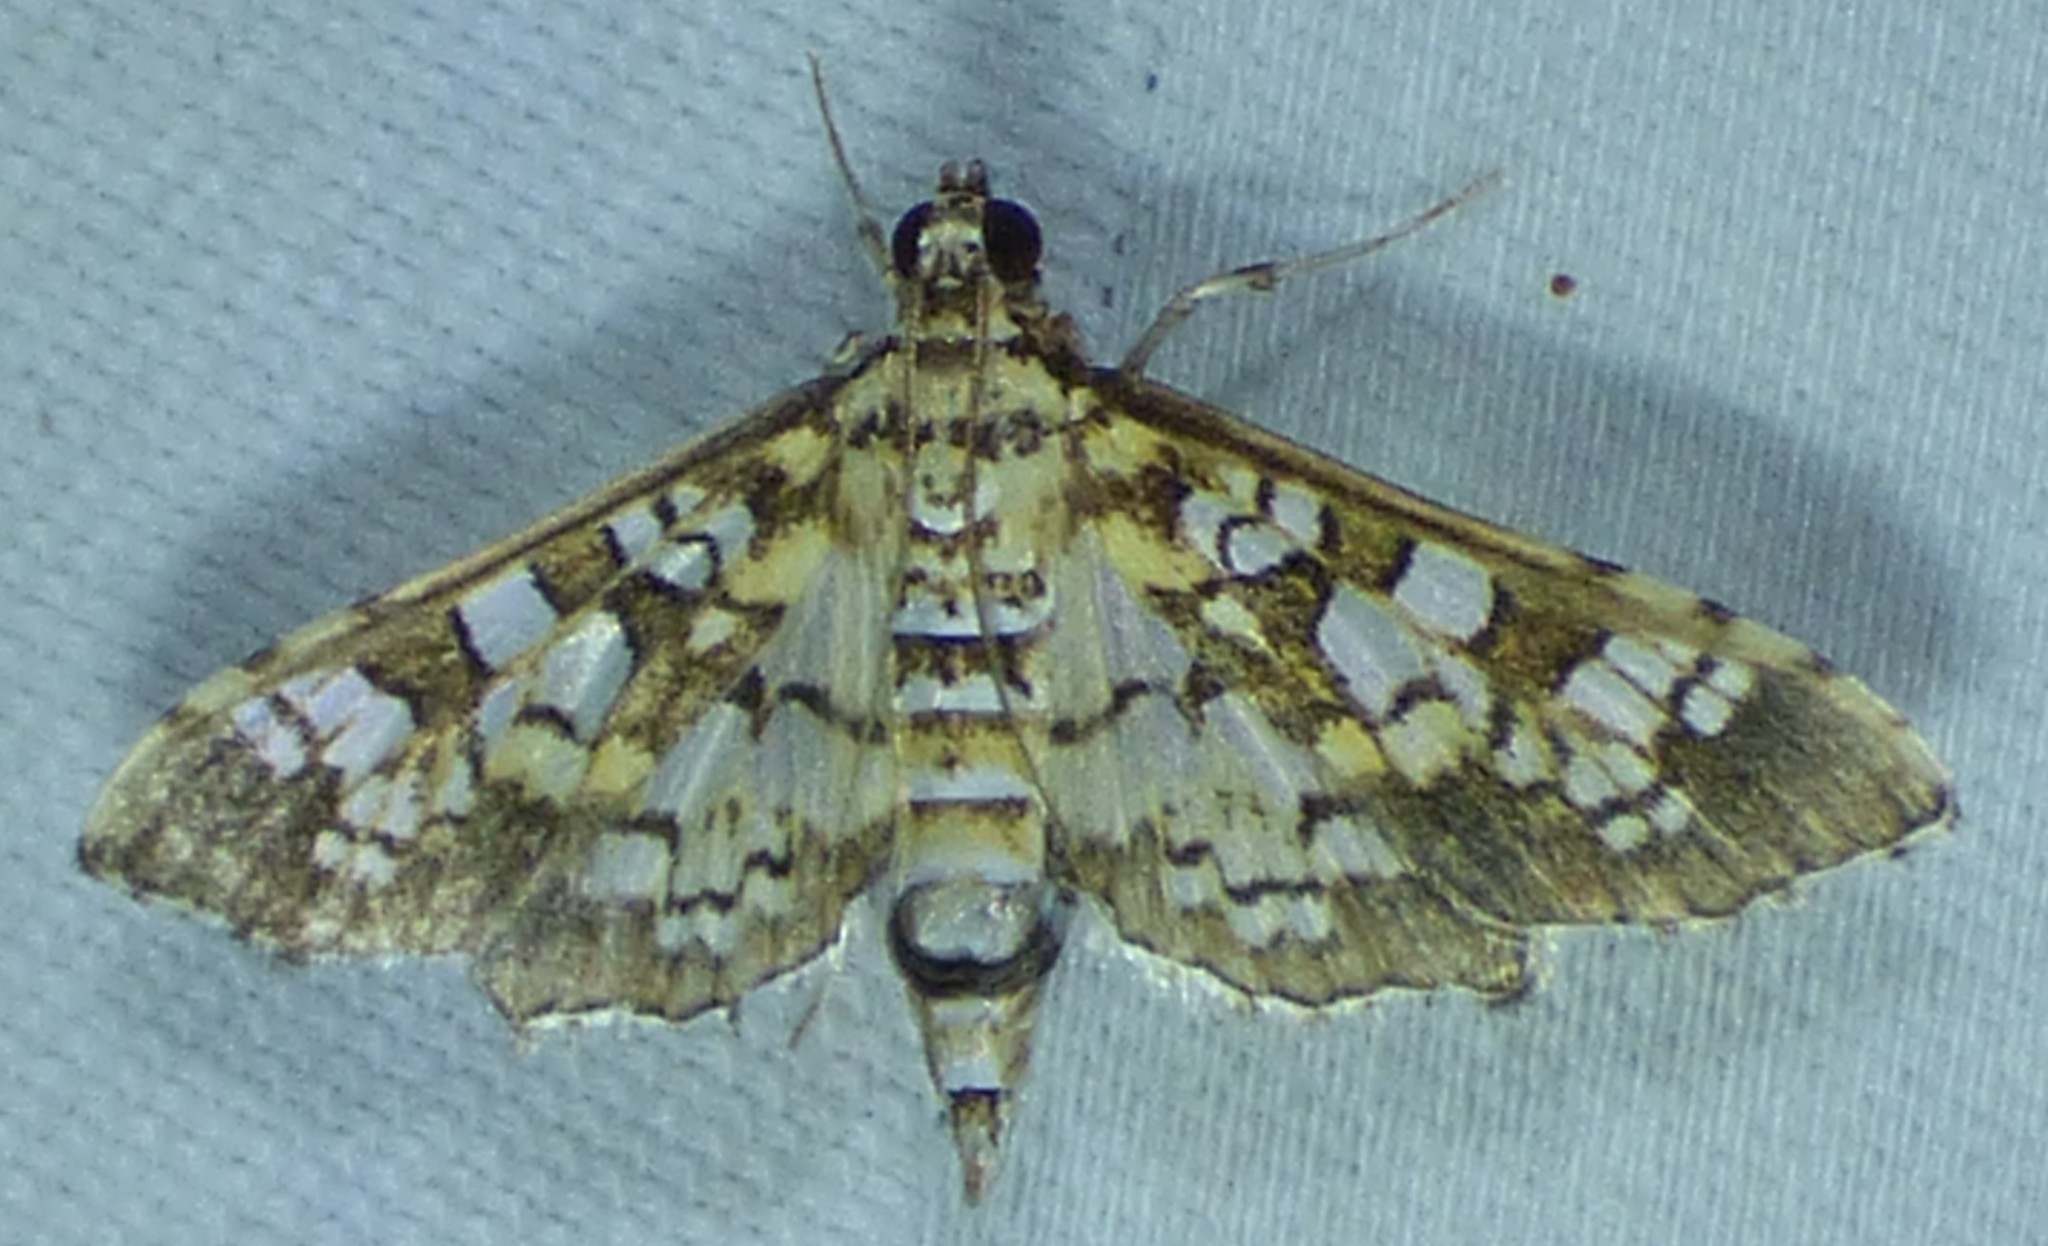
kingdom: Animalia
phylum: Arthropoda
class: Insecta
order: Lepidoptera
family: Crambidae
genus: Samea
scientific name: Samea ecclesialis
